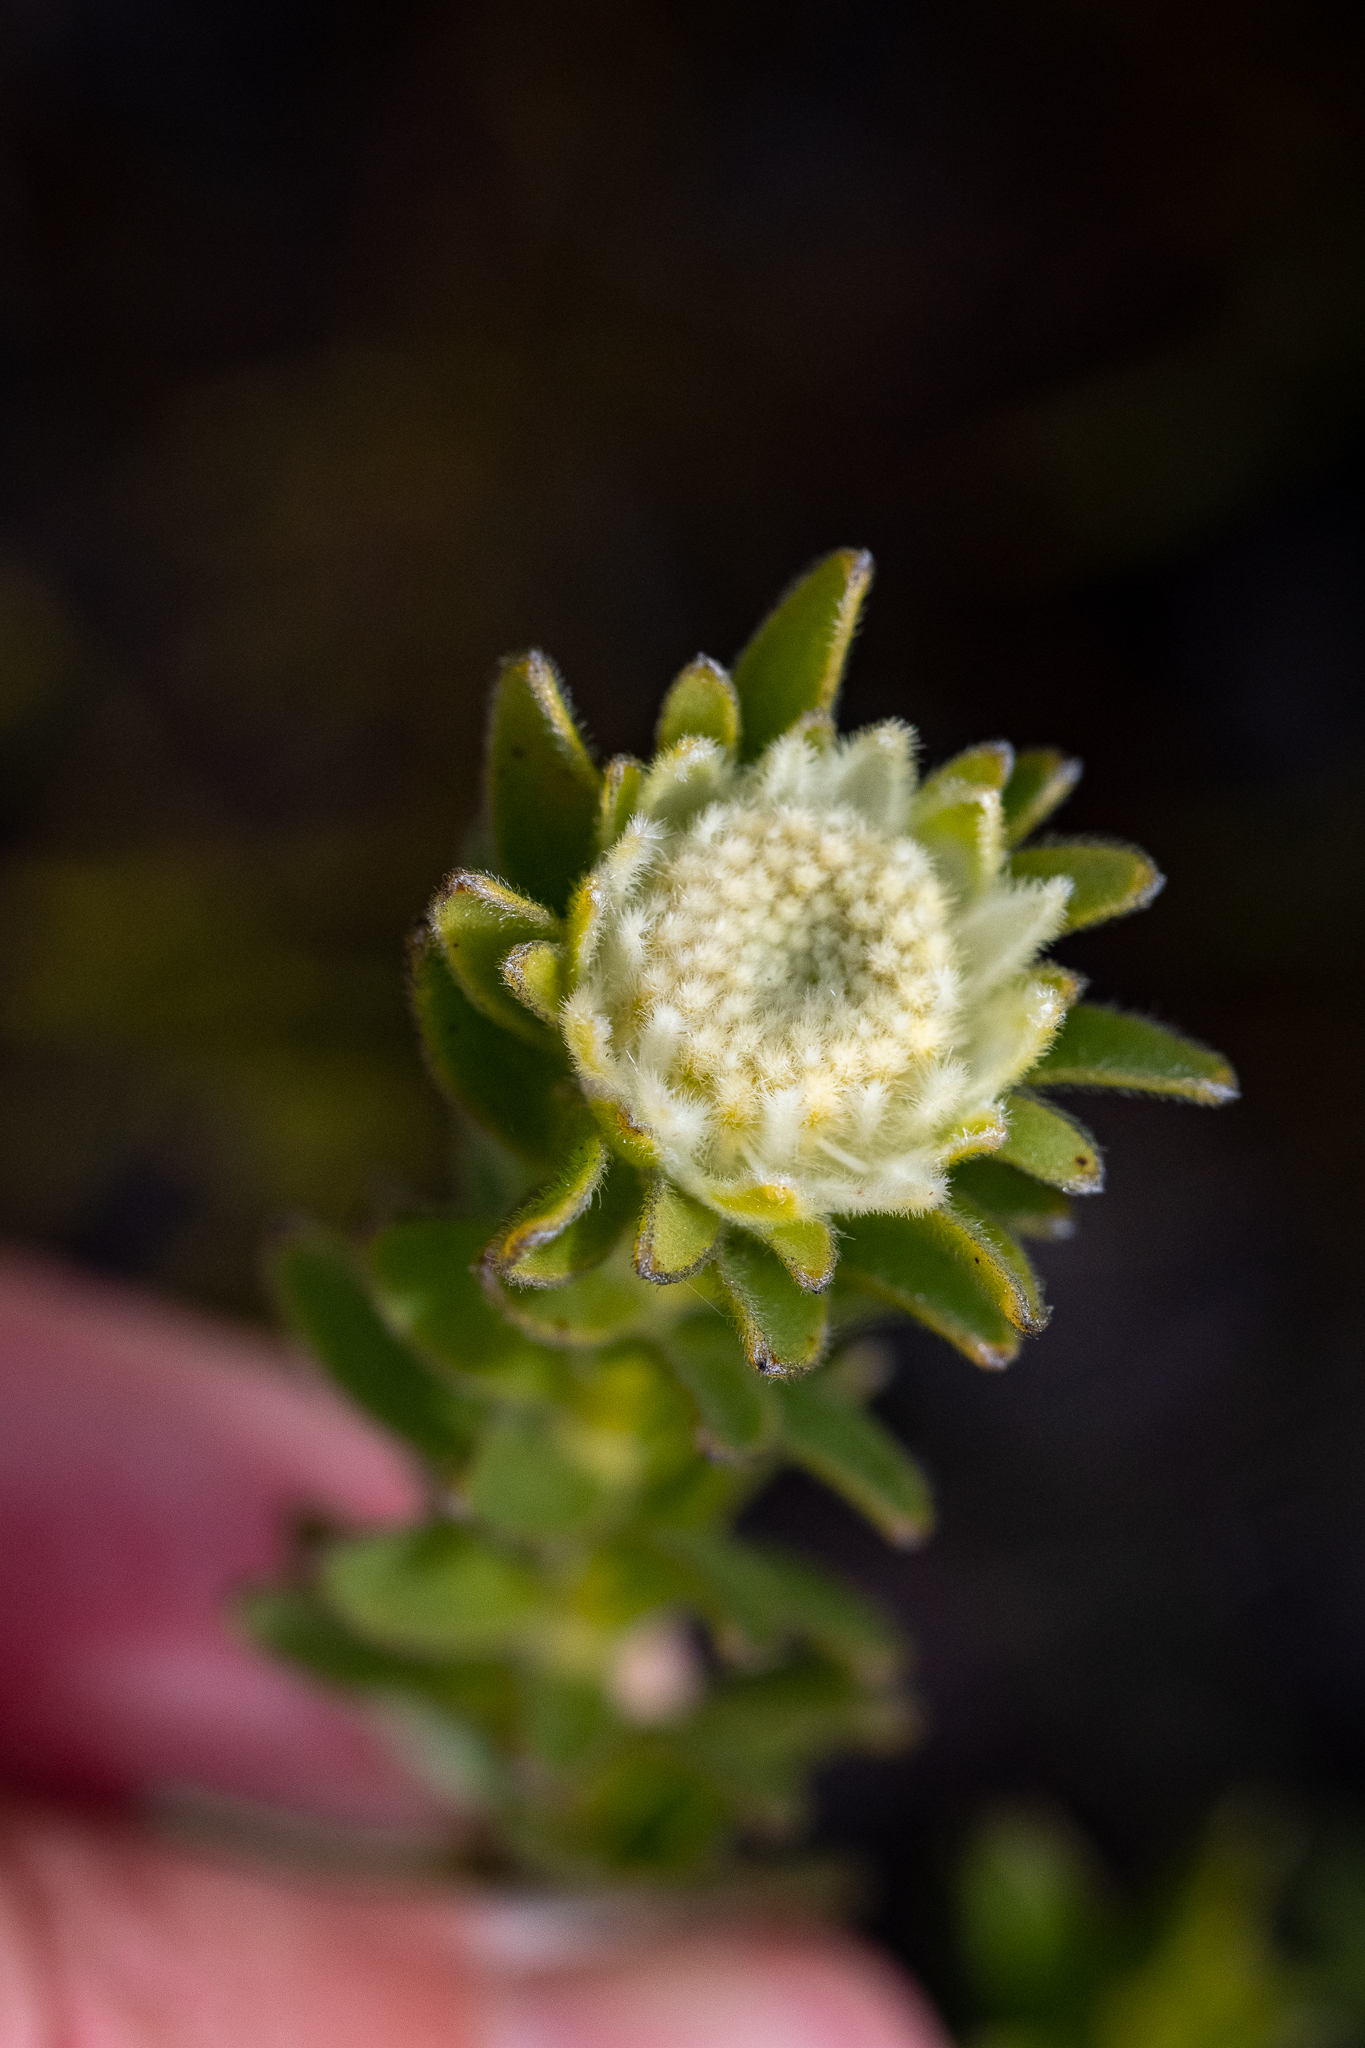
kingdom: Plantae
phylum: Tracheophyta
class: Magnoliopsida
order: Proteales
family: Proteaceae
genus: Diastella
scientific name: Diastella thymelaeoides
